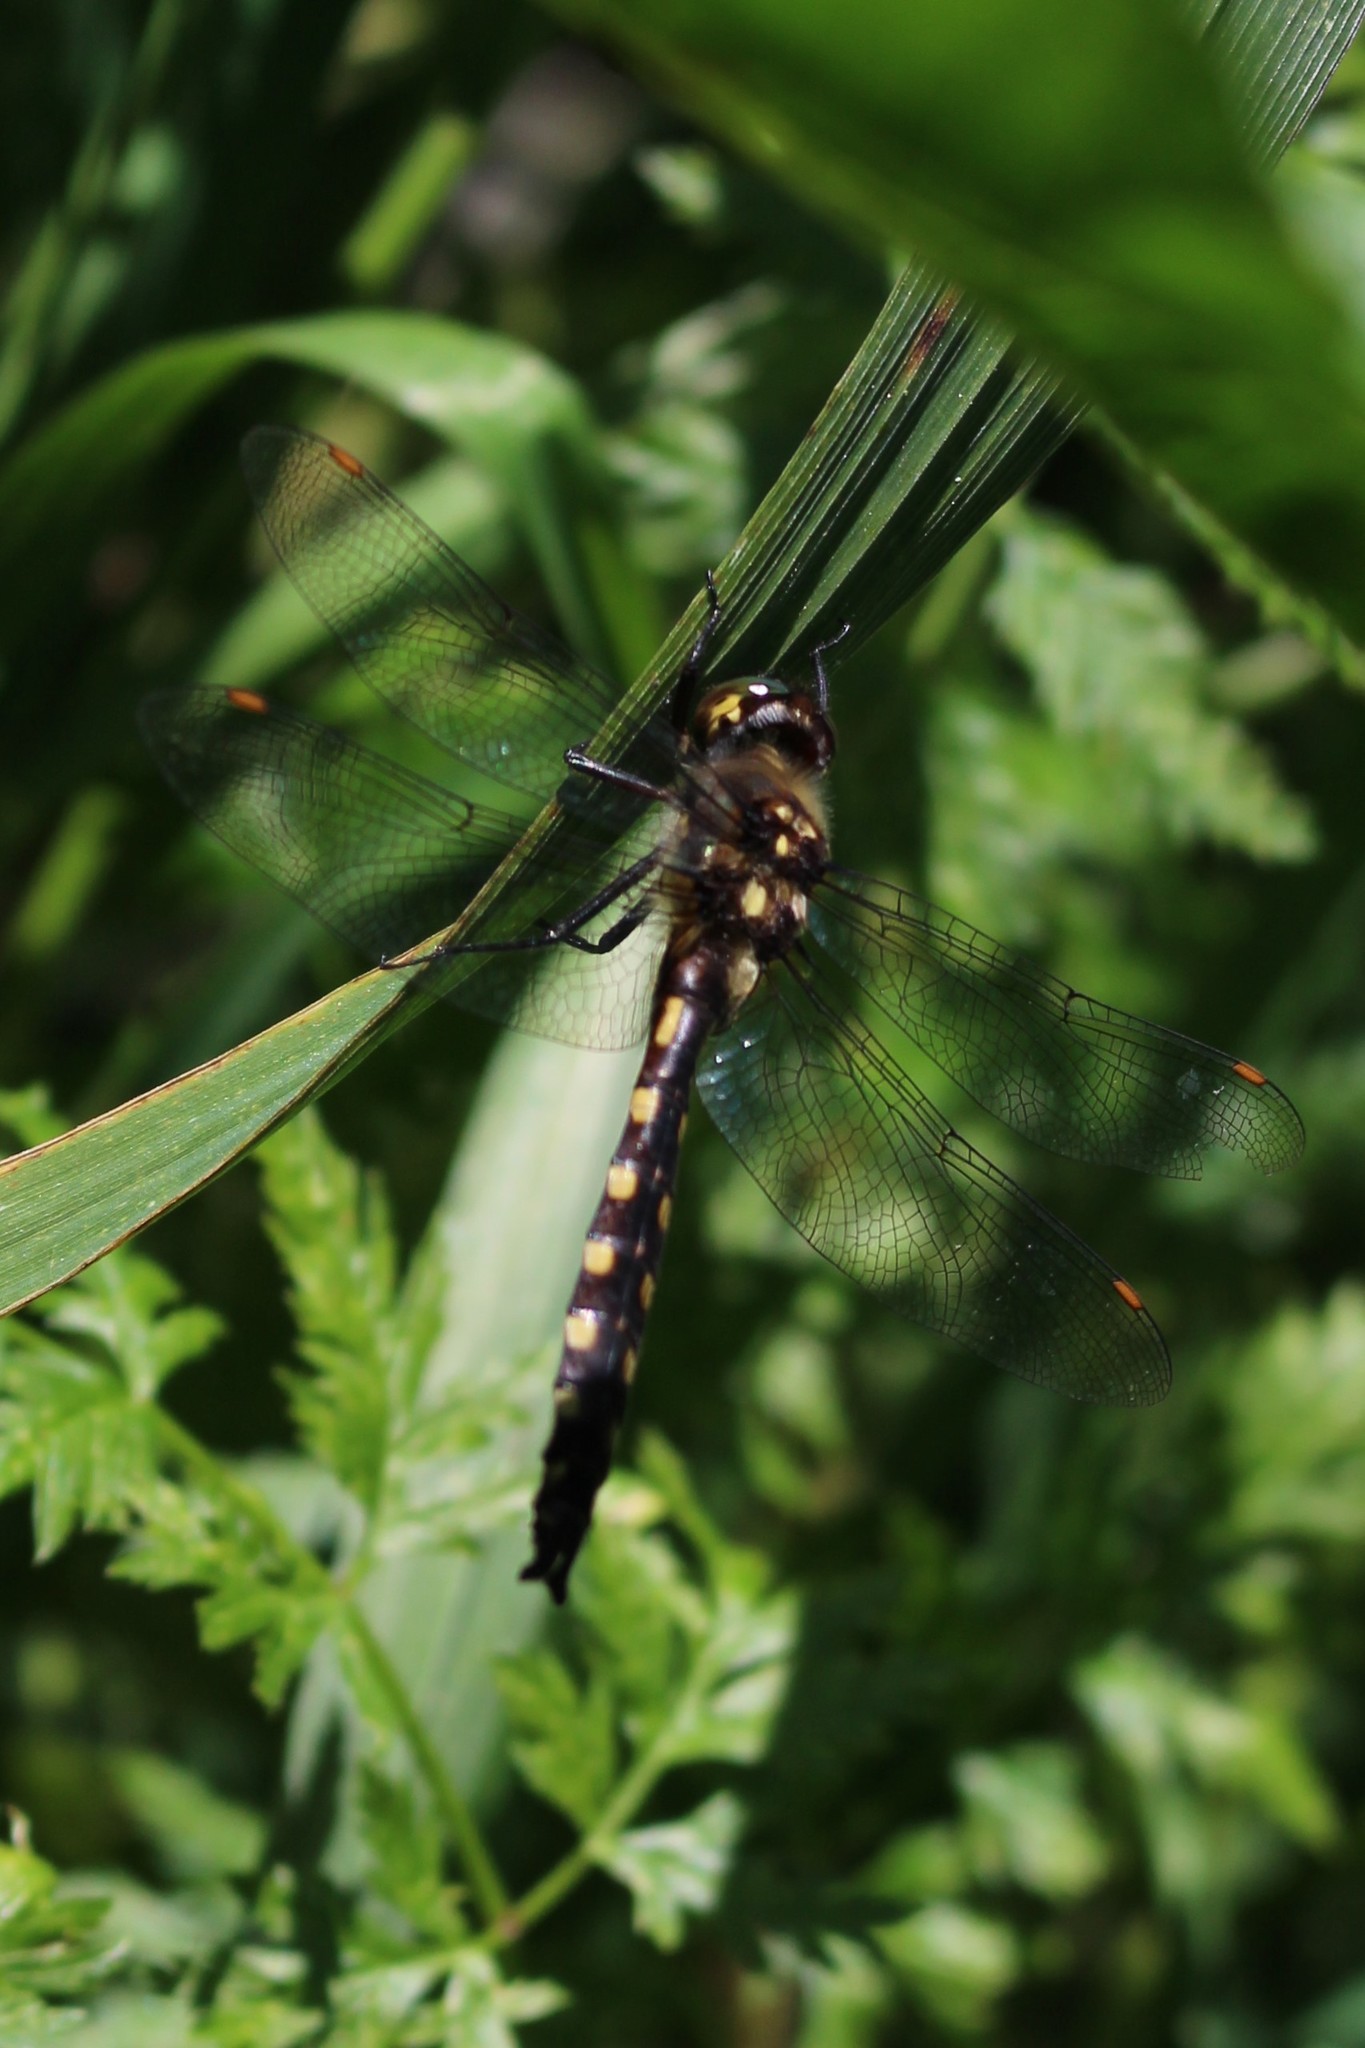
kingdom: Animalia
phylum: Arthropoda
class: Insecta
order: Odonata
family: Corduliidae
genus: Procordulia
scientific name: Procordulia grayi
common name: Yellow spotted dragonfly
